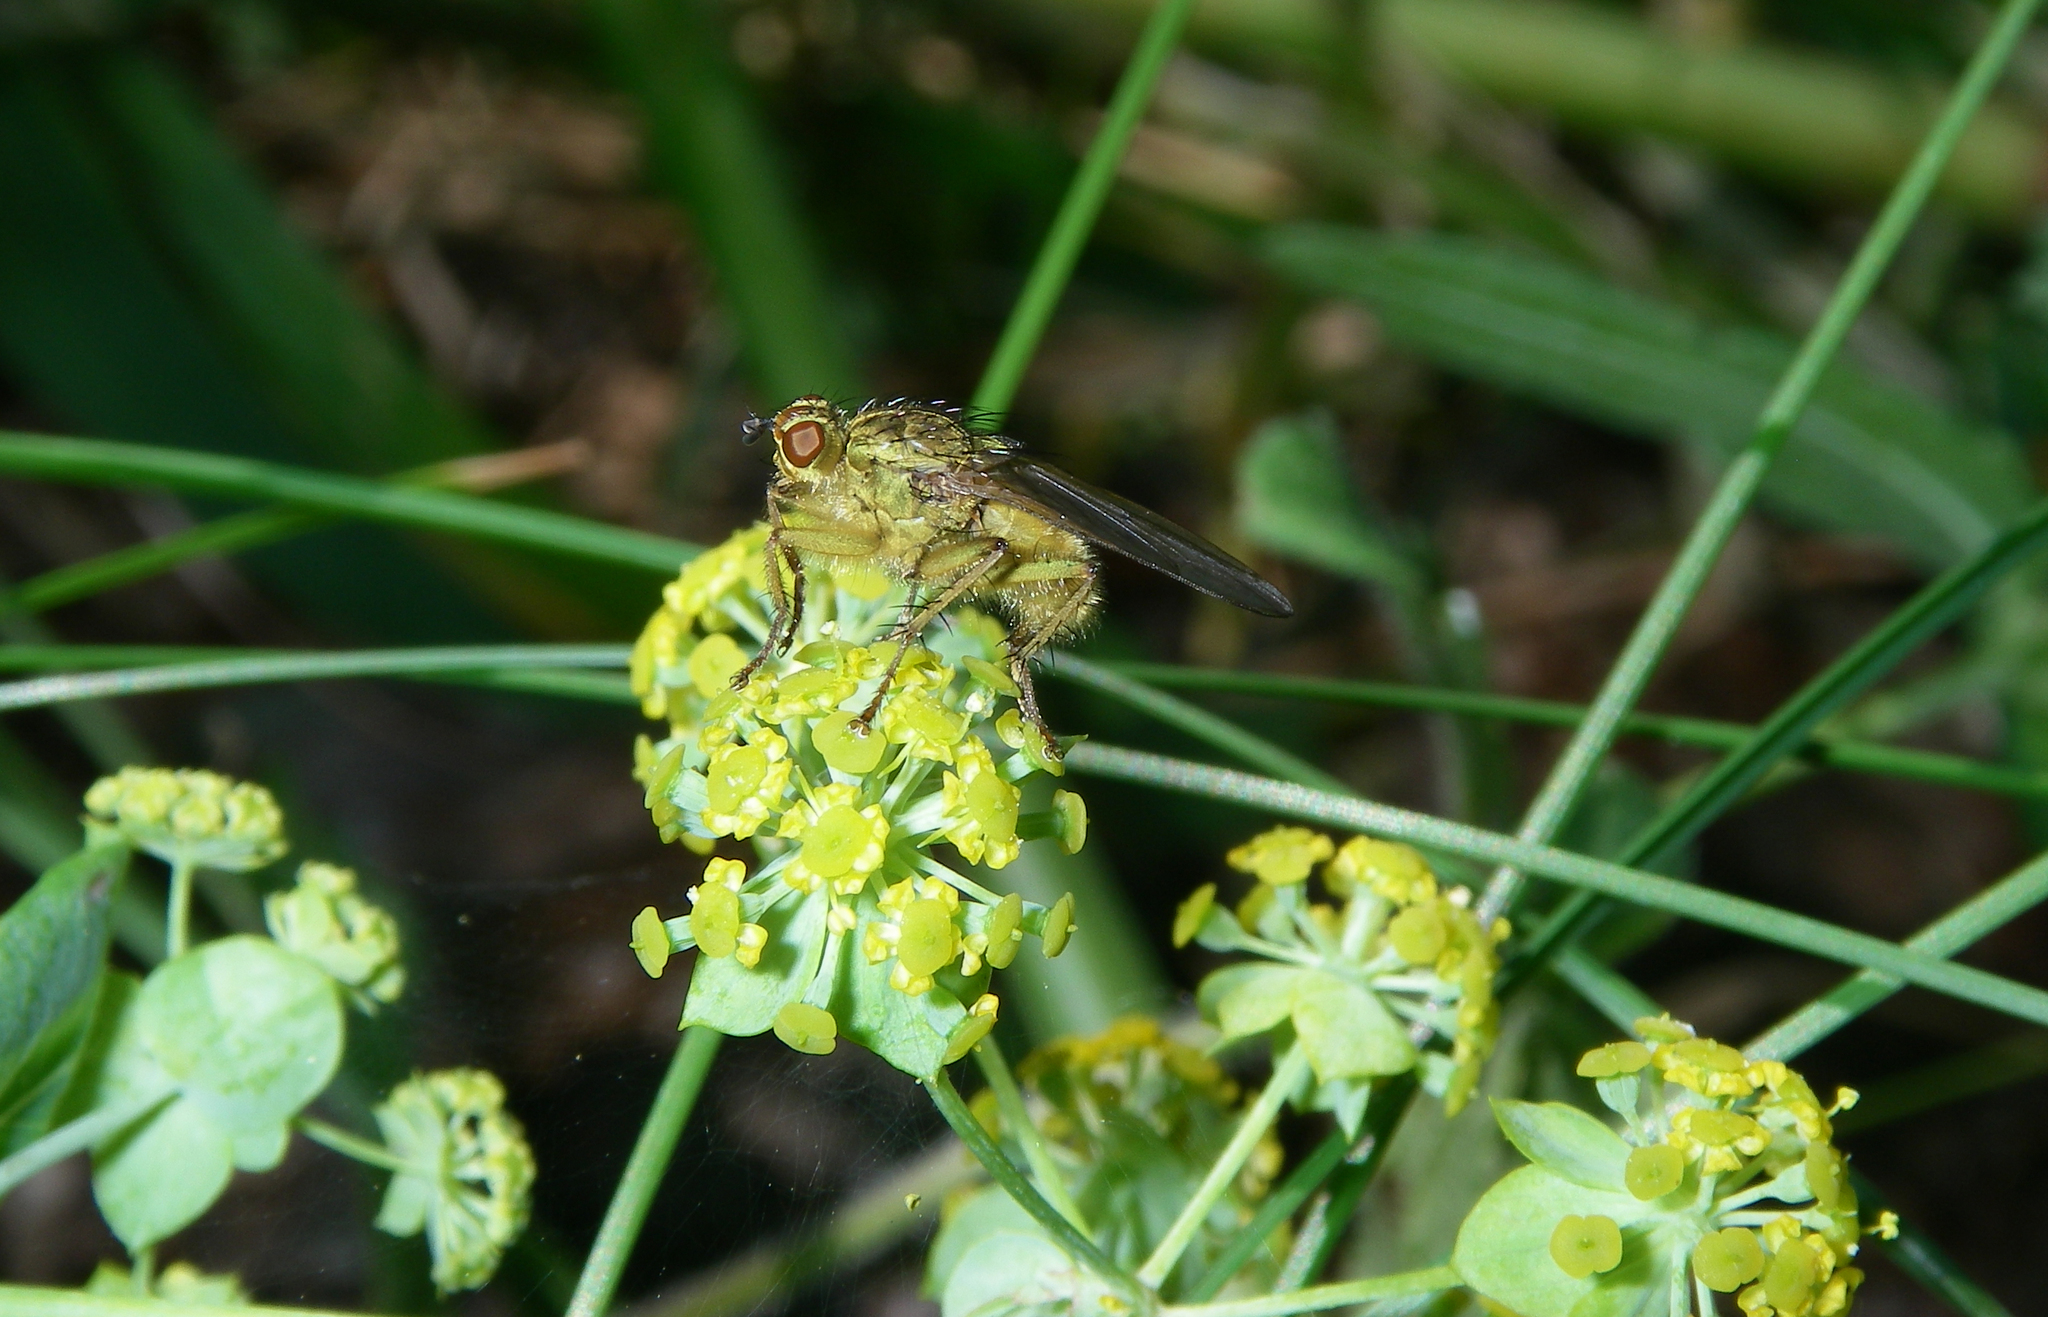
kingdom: Plantae
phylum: Tracheophyta
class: Magnoliopsida
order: Apiales
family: Apiaceae
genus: Bupleurum
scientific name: Bupleurum aureum
